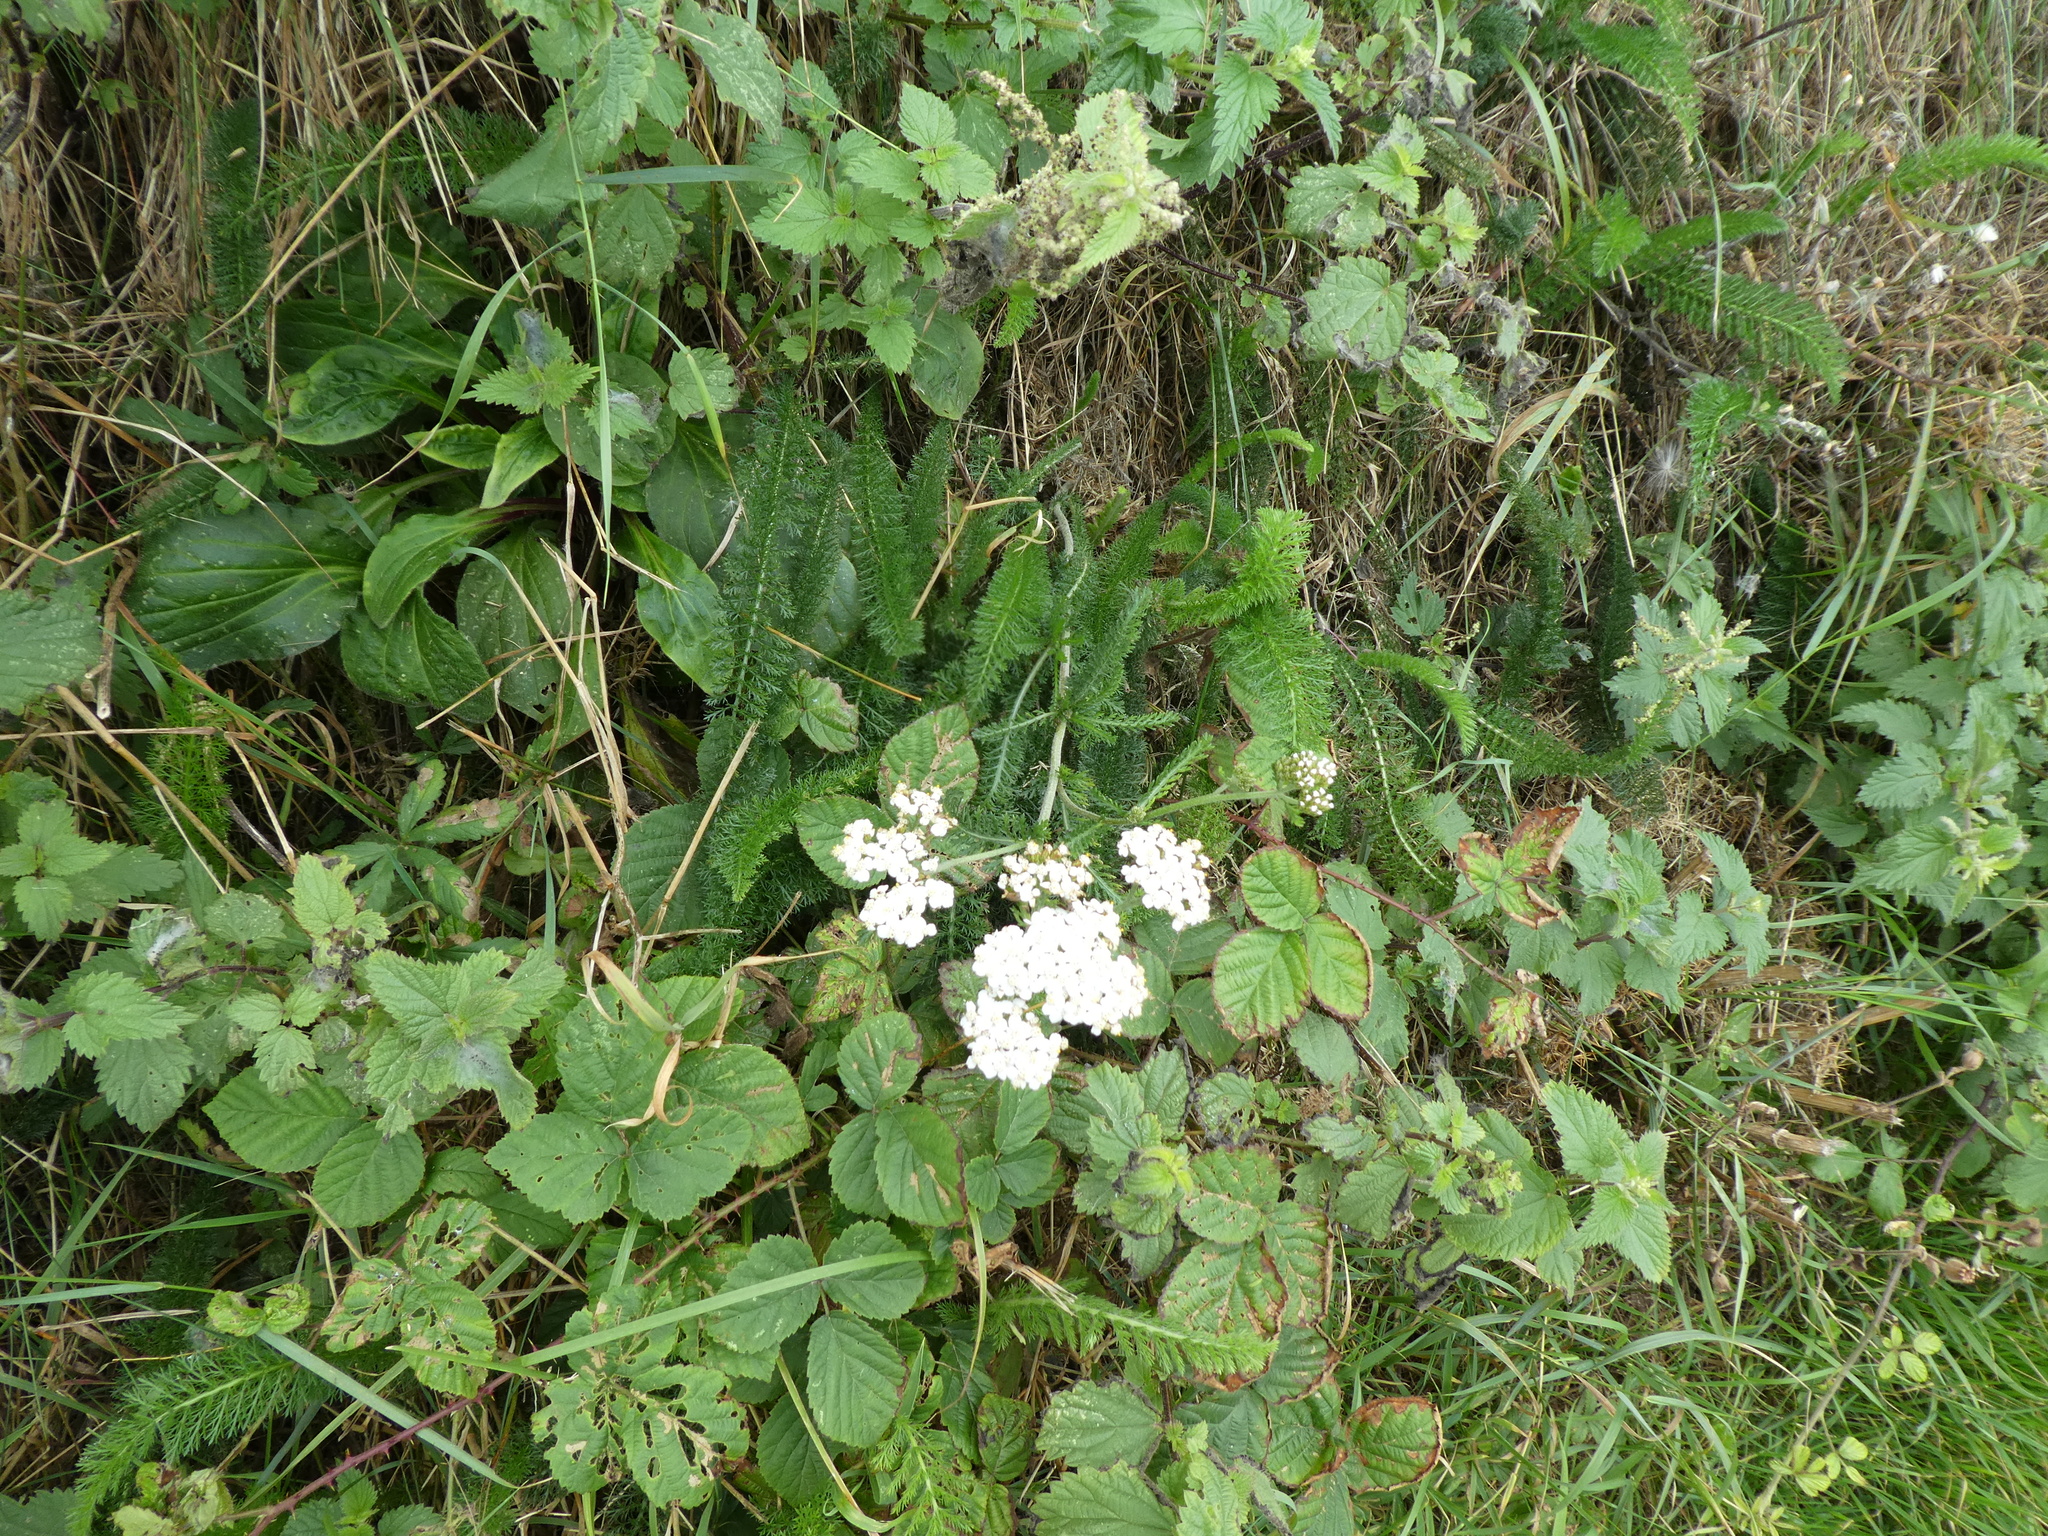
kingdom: Plantae
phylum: Tracheophyta
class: Magnoliopsida
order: Asterales
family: Asteraceae
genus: Achillea
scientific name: Achillea millefolium
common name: Yarrow
